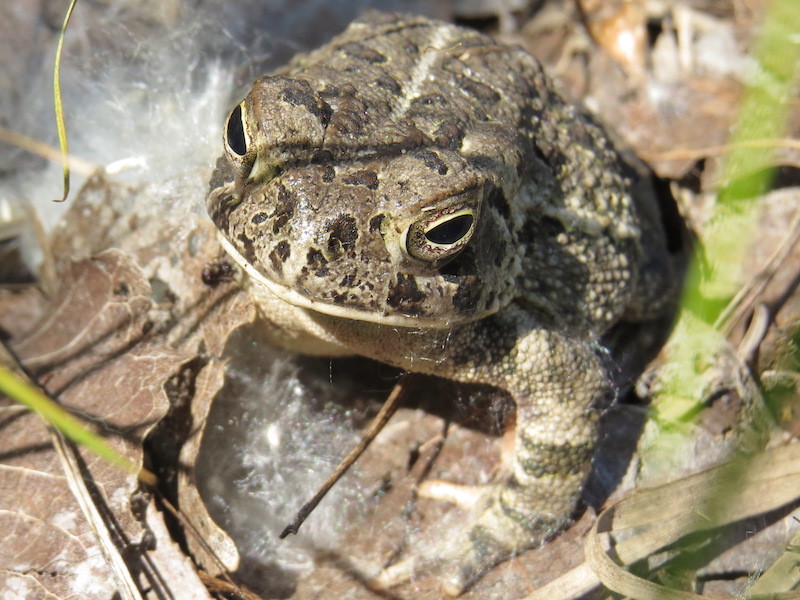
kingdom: Animalia
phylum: Chordata
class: Amphibia
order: Anura
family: Bufonidae
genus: Anaxyrus
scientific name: Anaxyrus fowleri
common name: Fowler's toad
